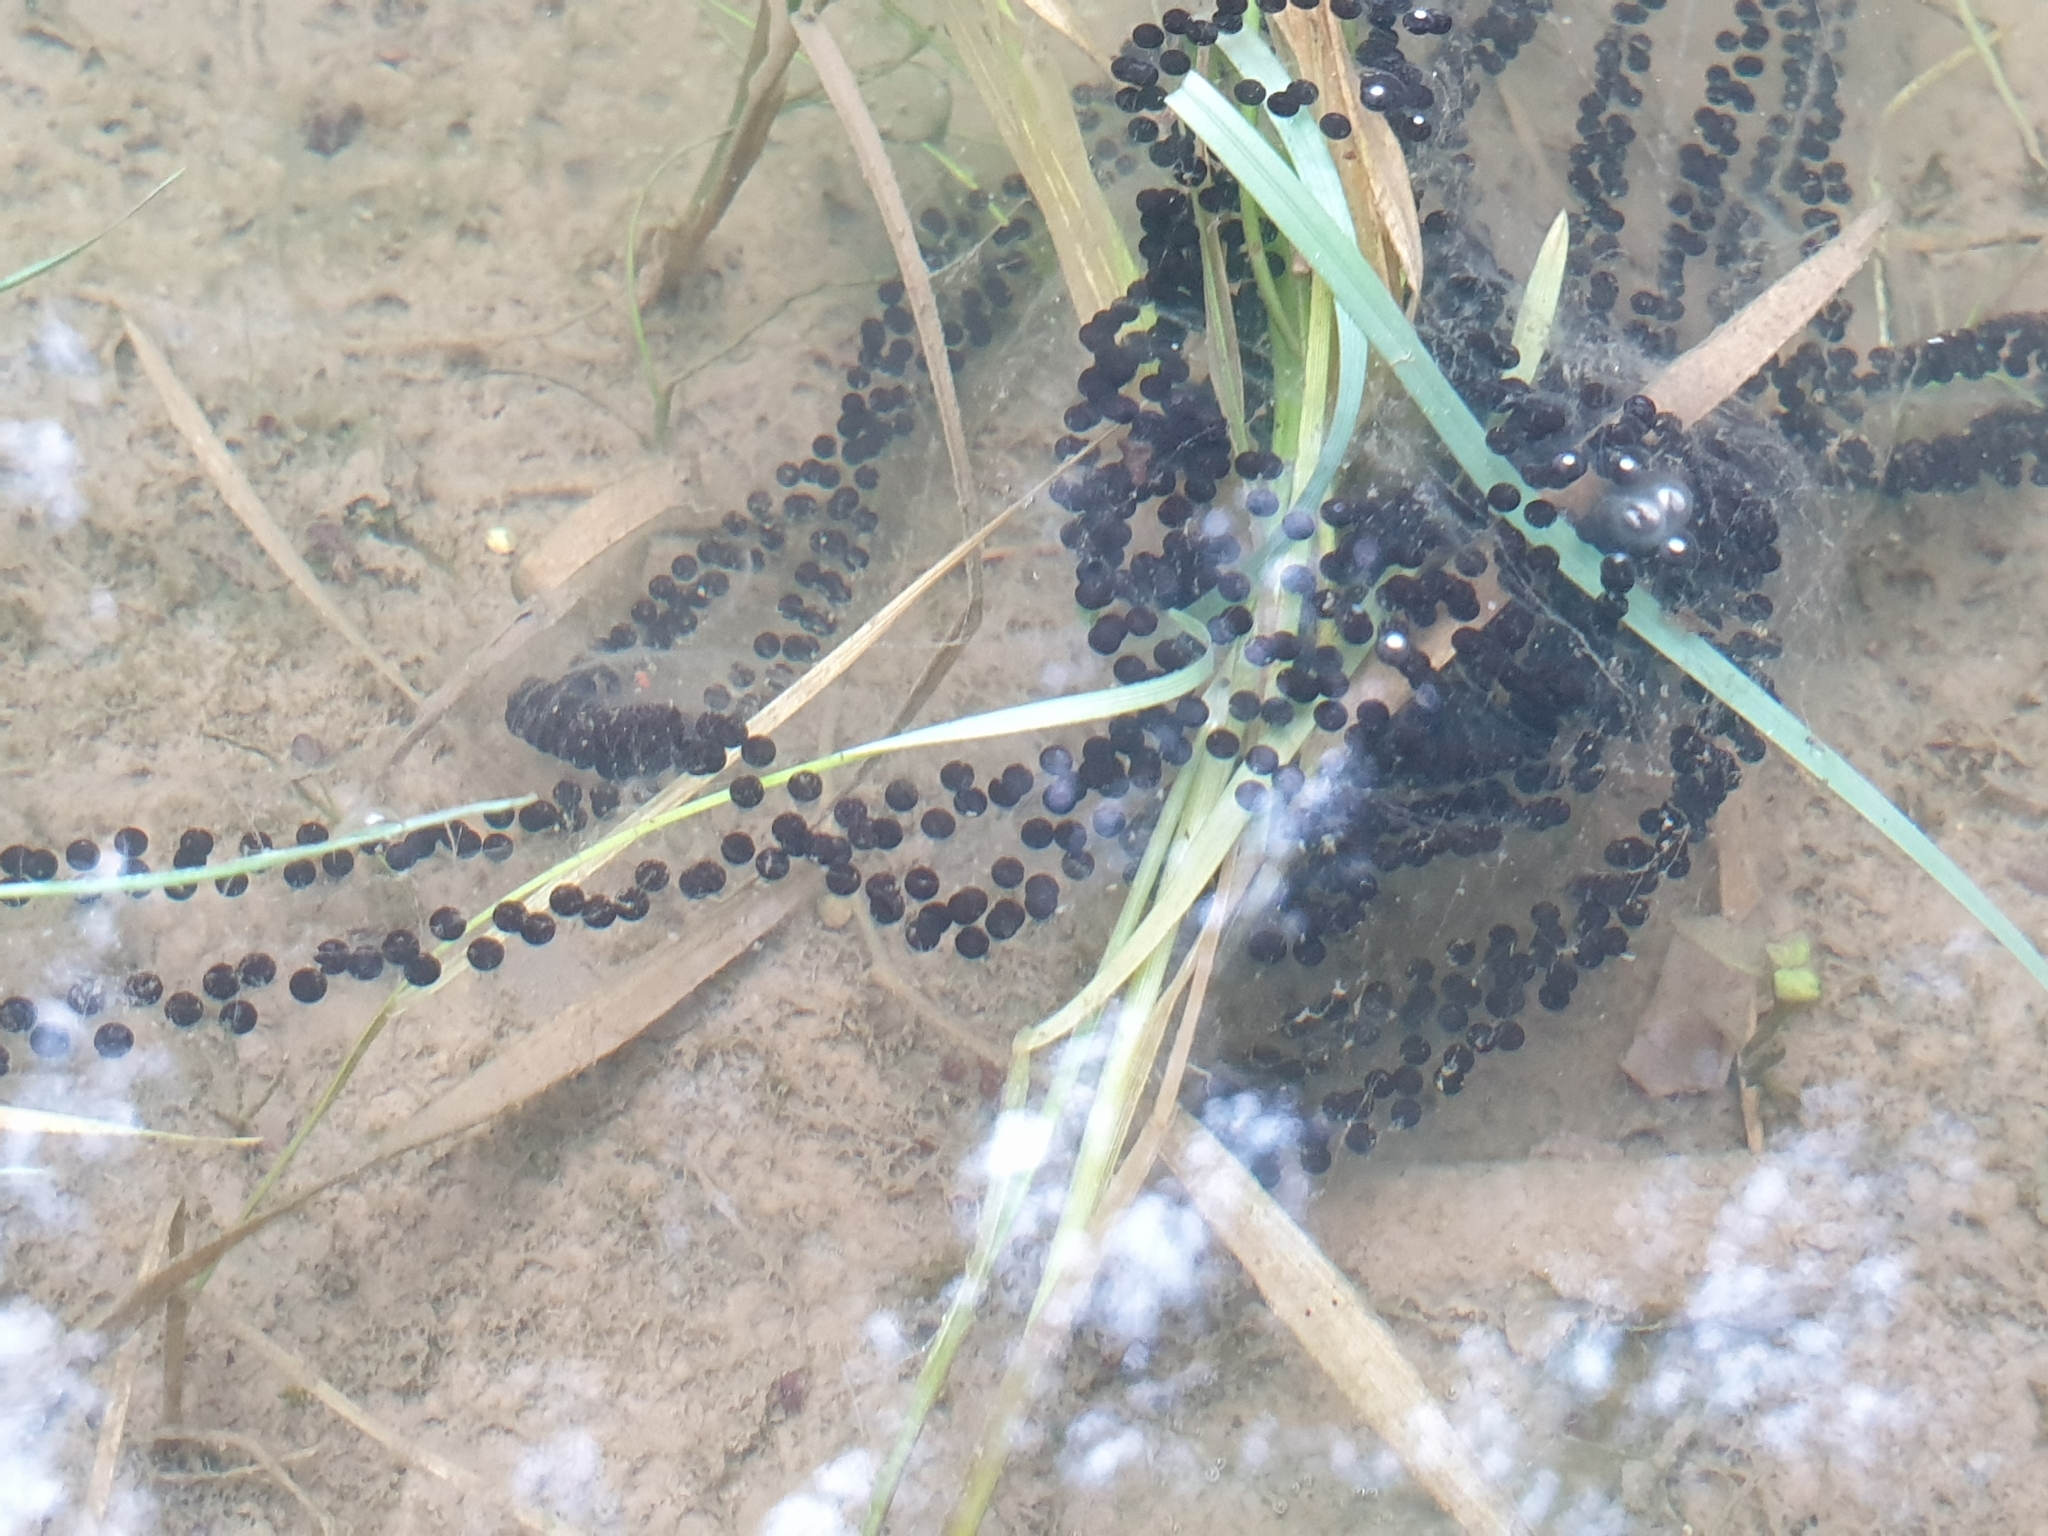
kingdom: Animalia
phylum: Chordata
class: Amphibia
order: Anura
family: Bufonidae
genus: Bufo
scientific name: Bufo bufo
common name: Common toad
